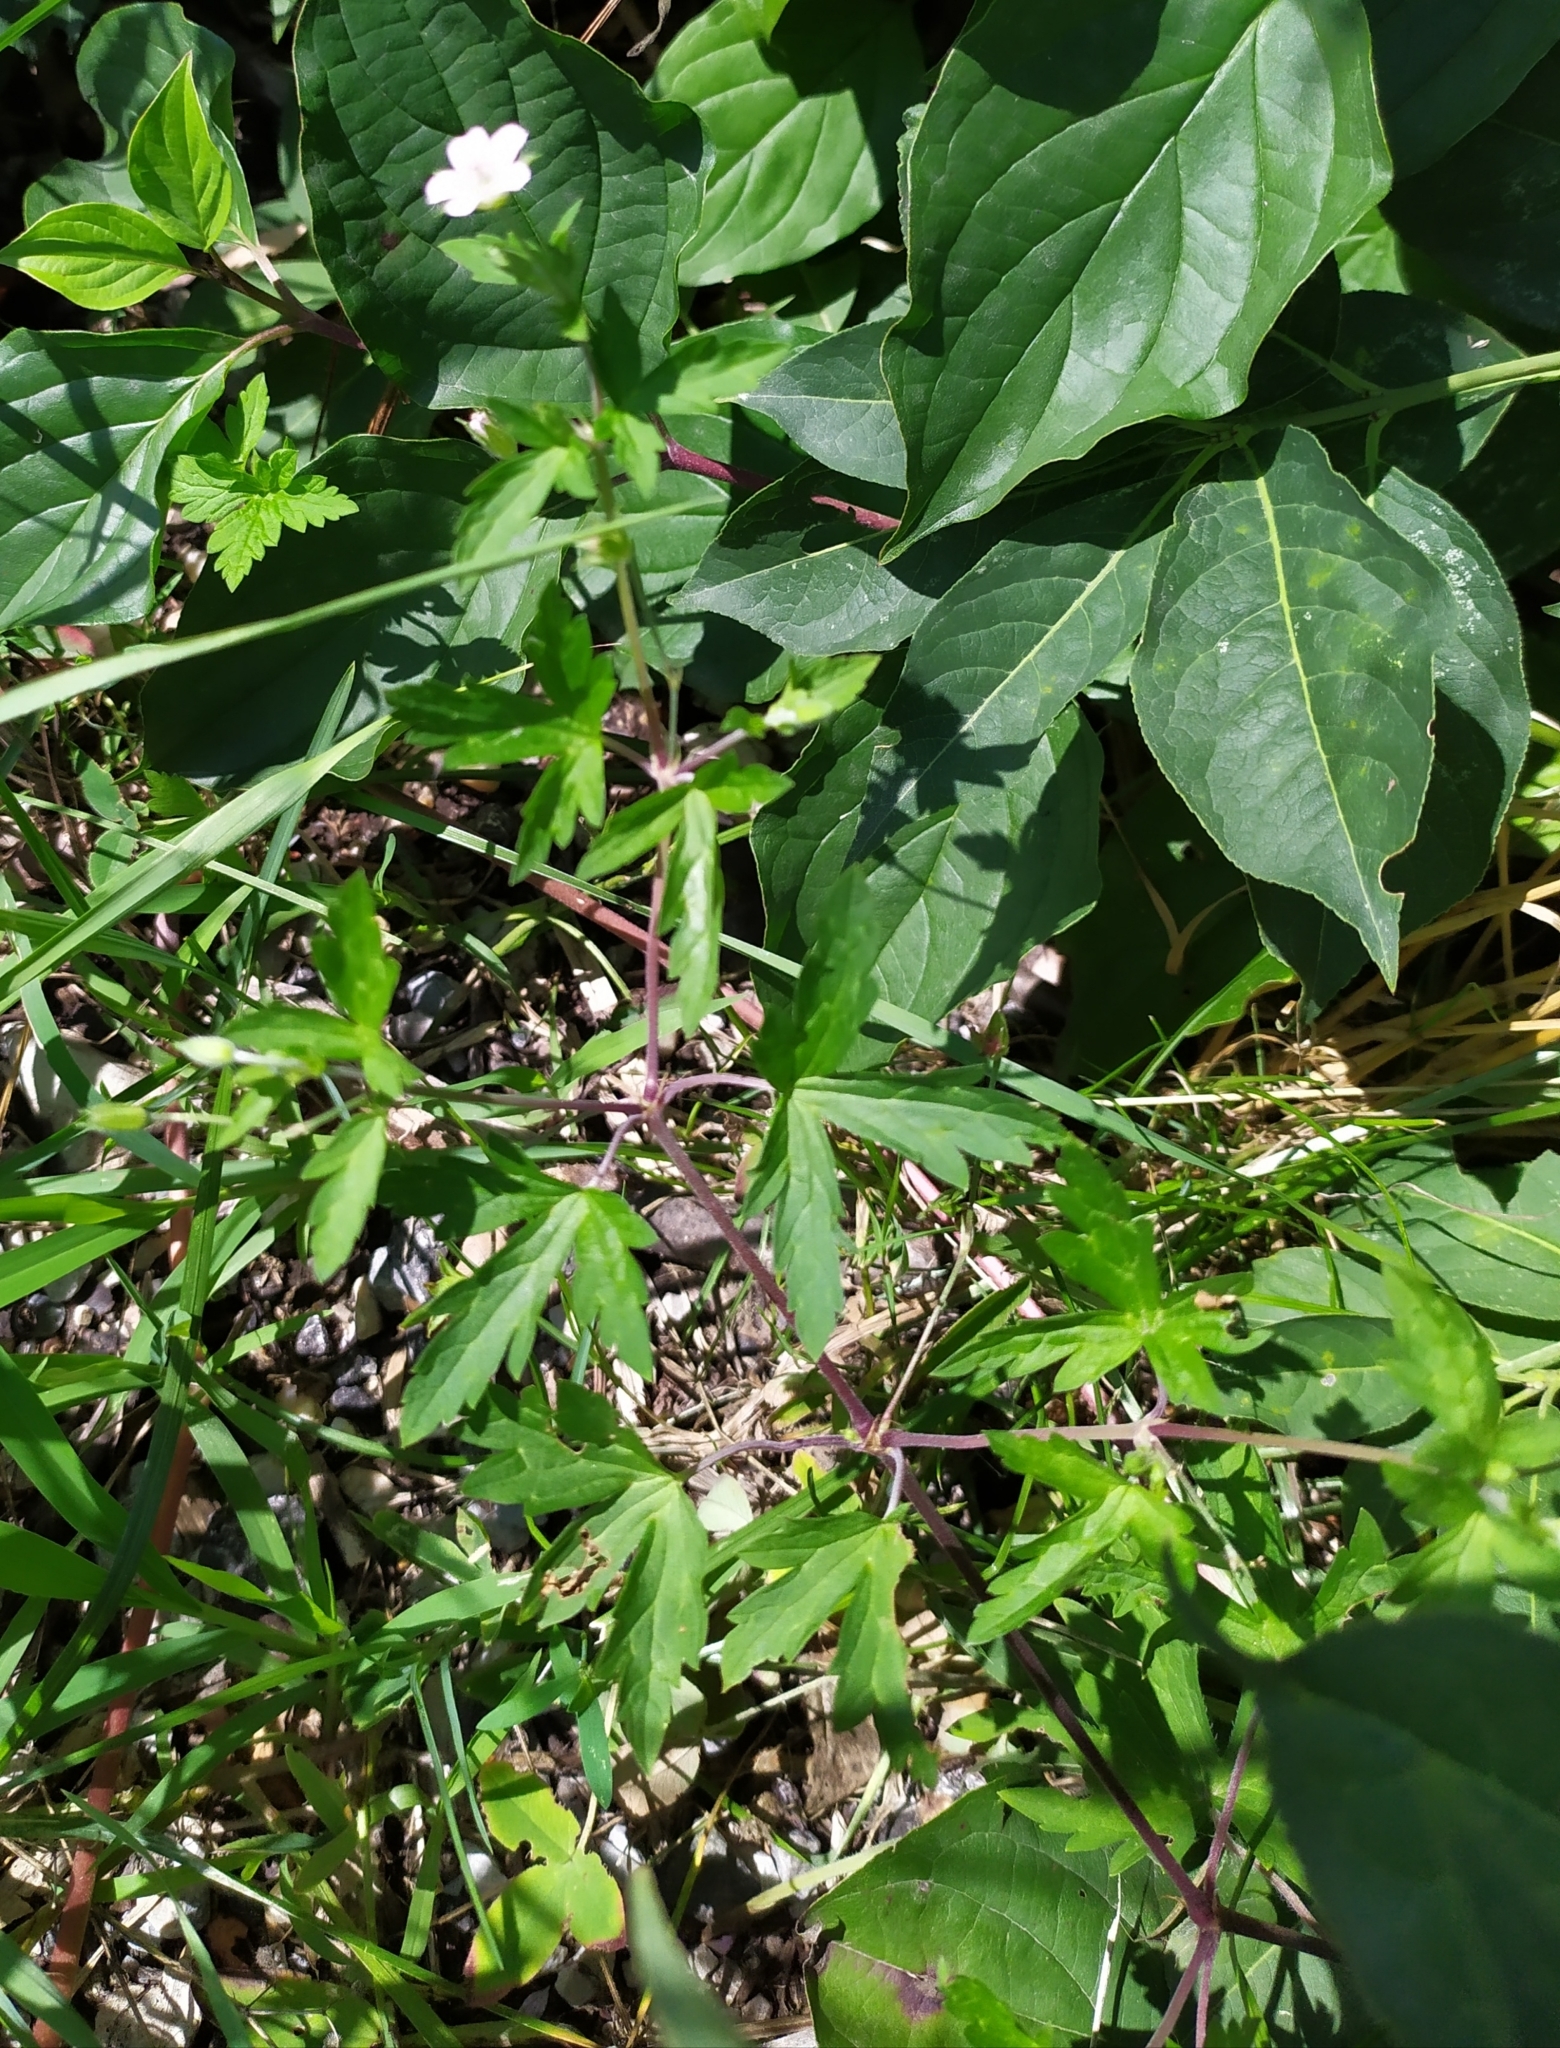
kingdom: Plantae
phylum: Tracheophyta
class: Magnoliopsida
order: Geraniales
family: Geraniaceae
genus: Geranium
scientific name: Geranium sibiricum
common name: Siberian crane's-bill
